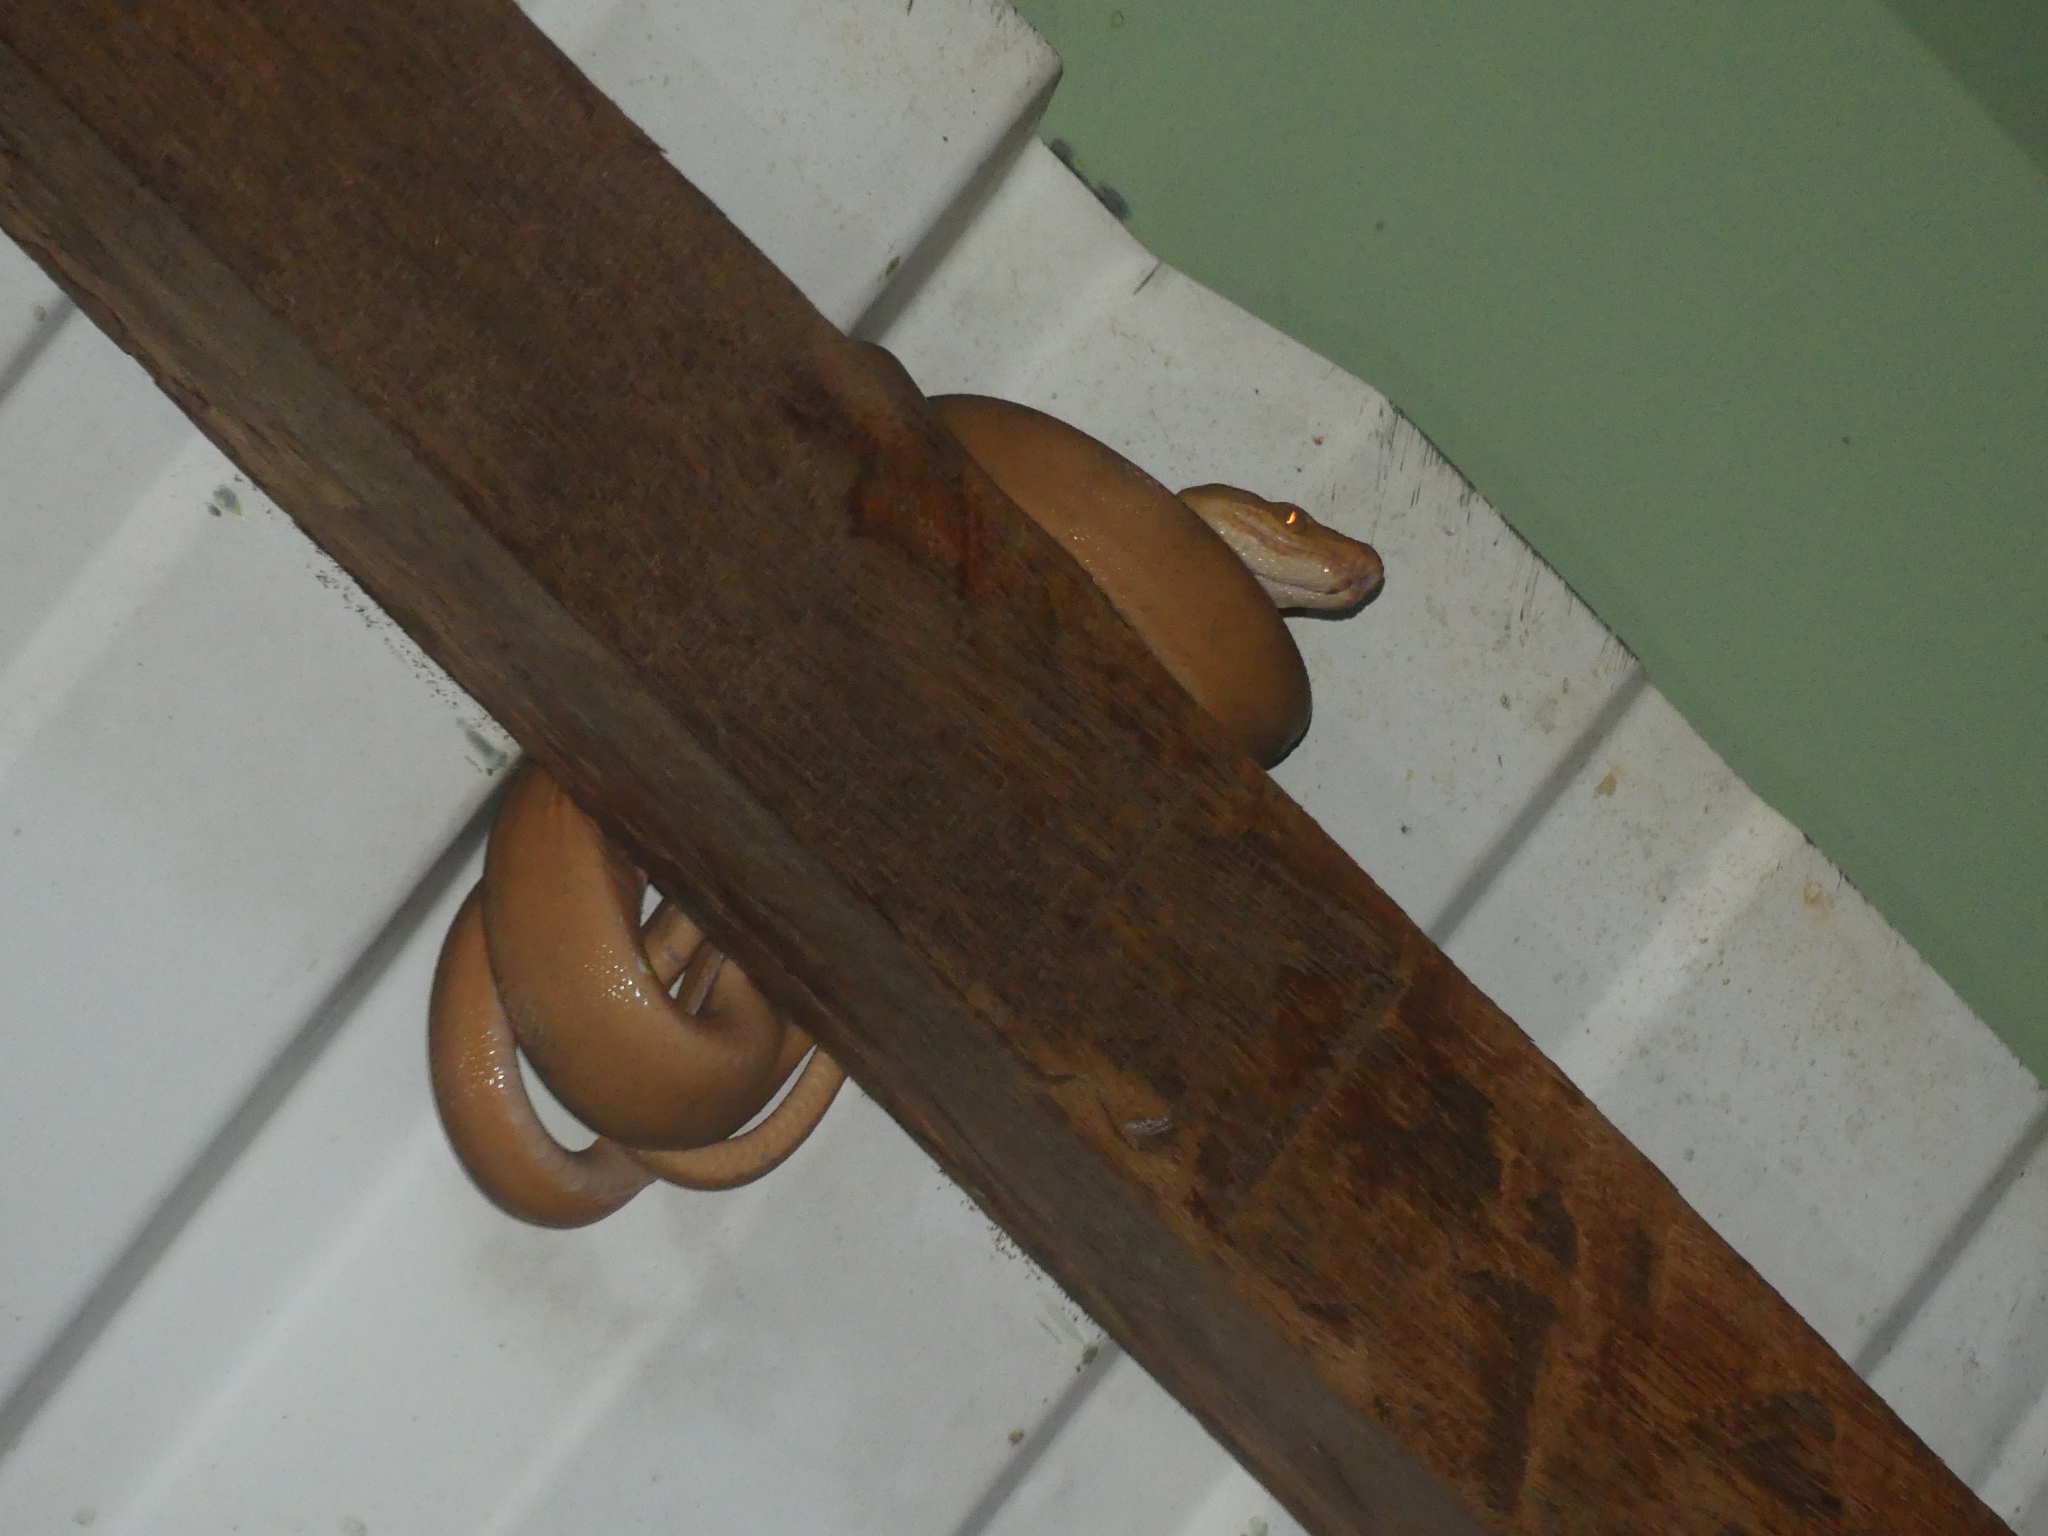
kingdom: Animalia
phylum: Chordata
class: Squamata
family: Boidae
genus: Corallus
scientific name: Corallus hortulana
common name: Garden tree boa
